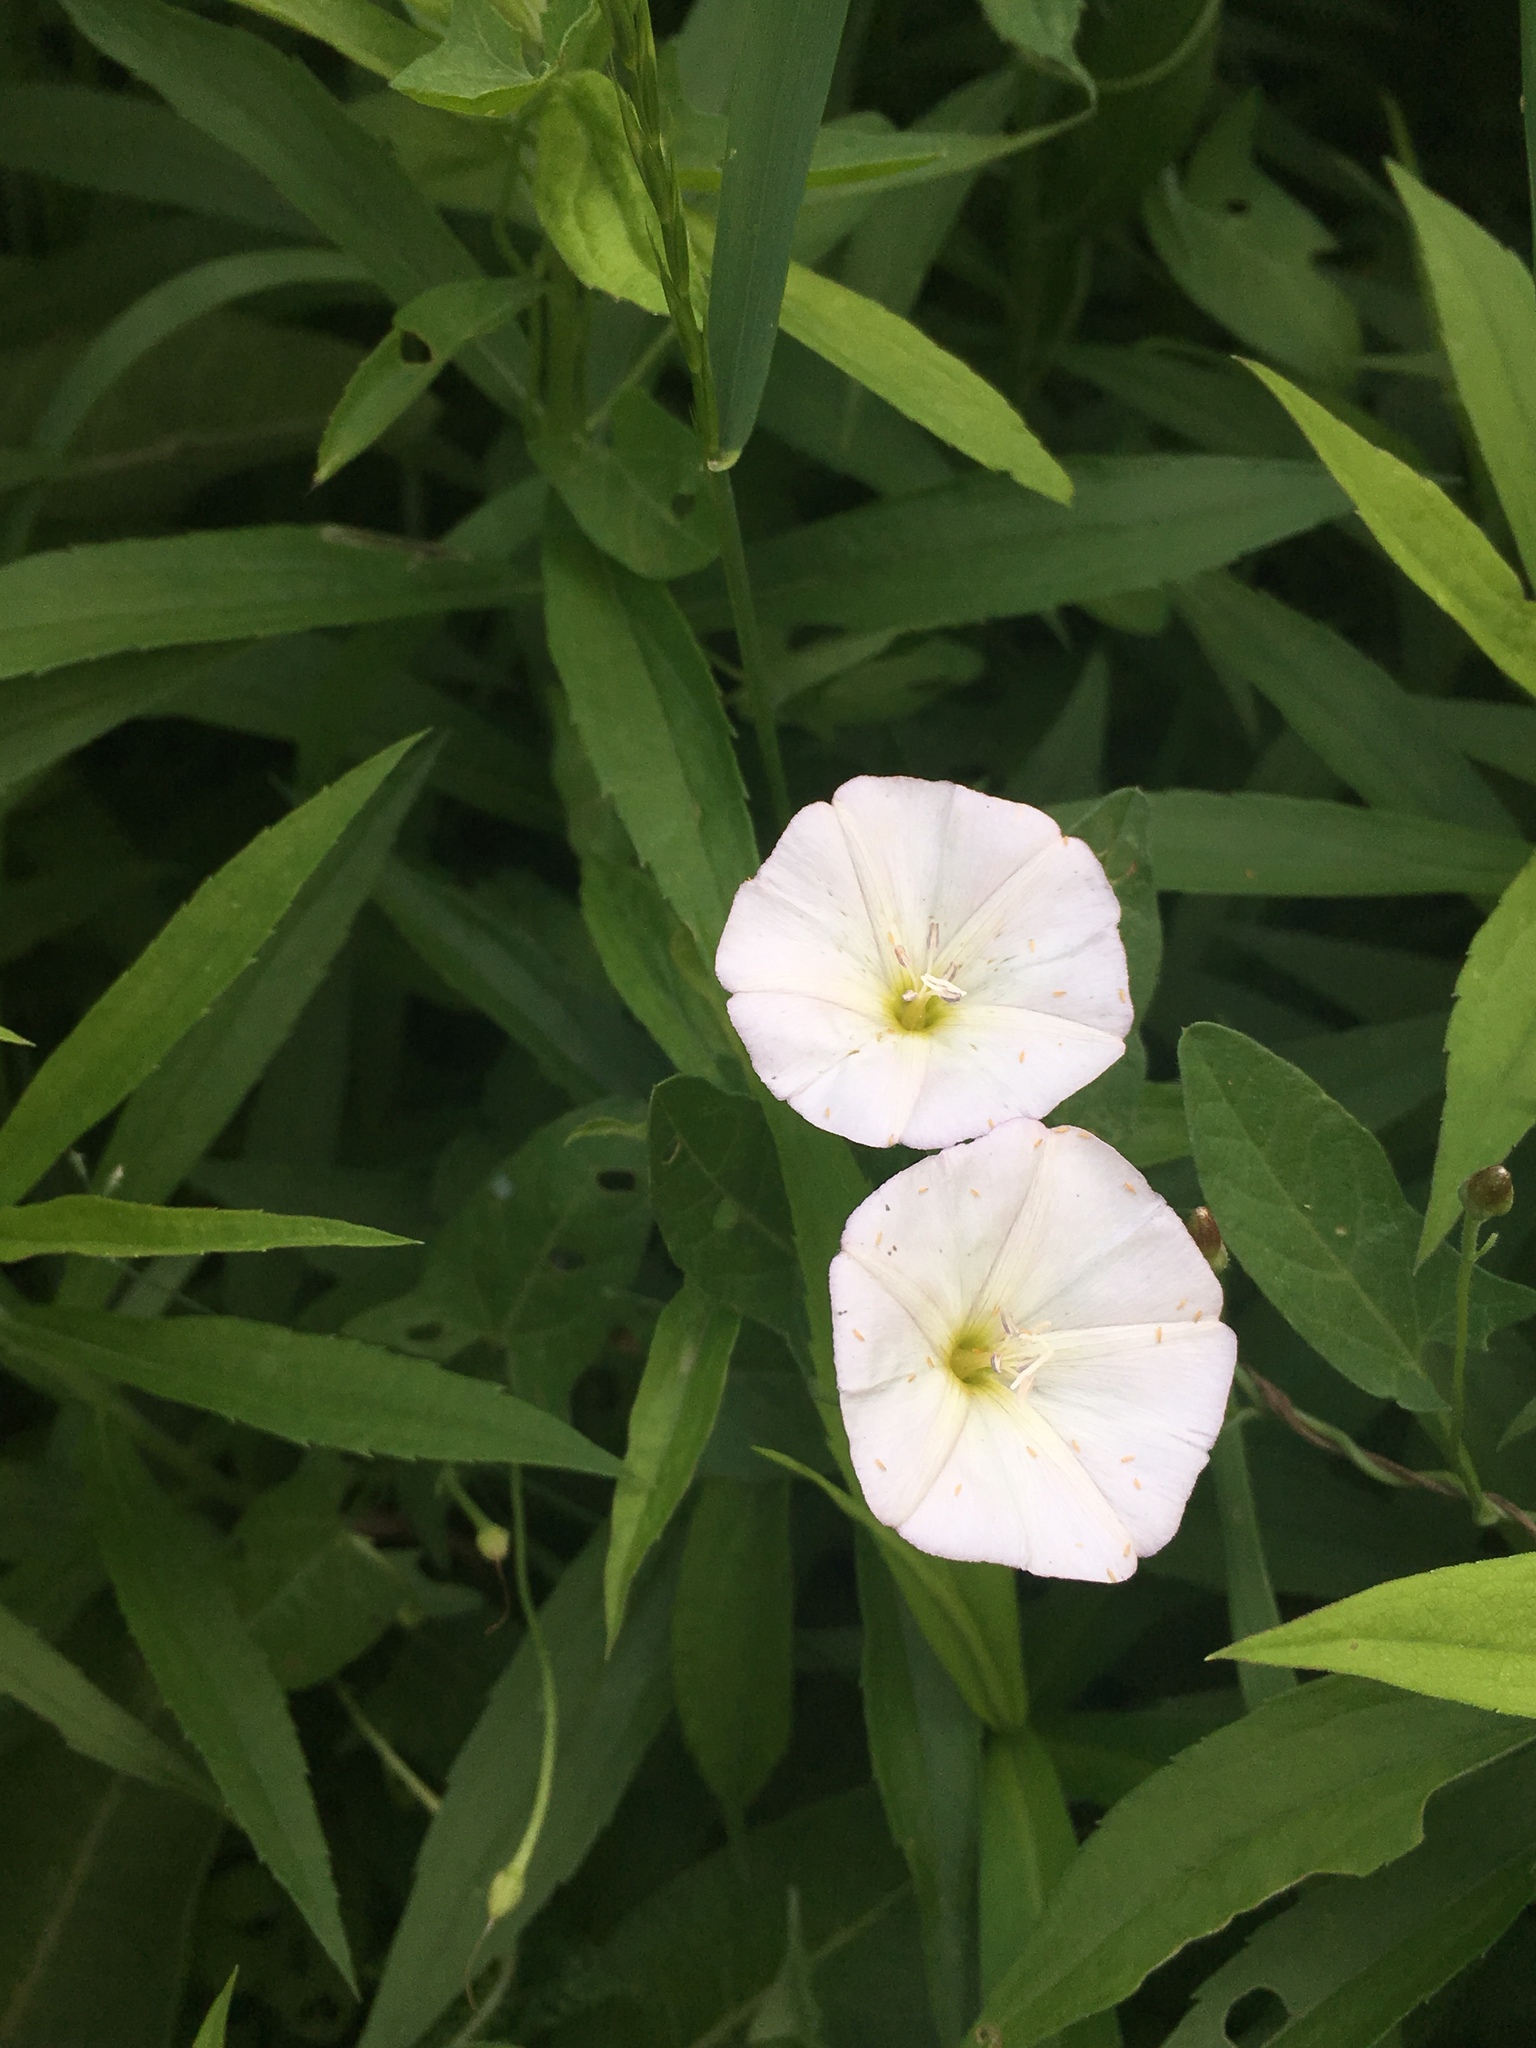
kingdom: Plantae
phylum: Tracheophyta
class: Magnoliopsida
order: Solanales
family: Convolvulaceae
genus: Convolvulus
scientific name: Convolvulus arvensis
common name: Field bindweed
